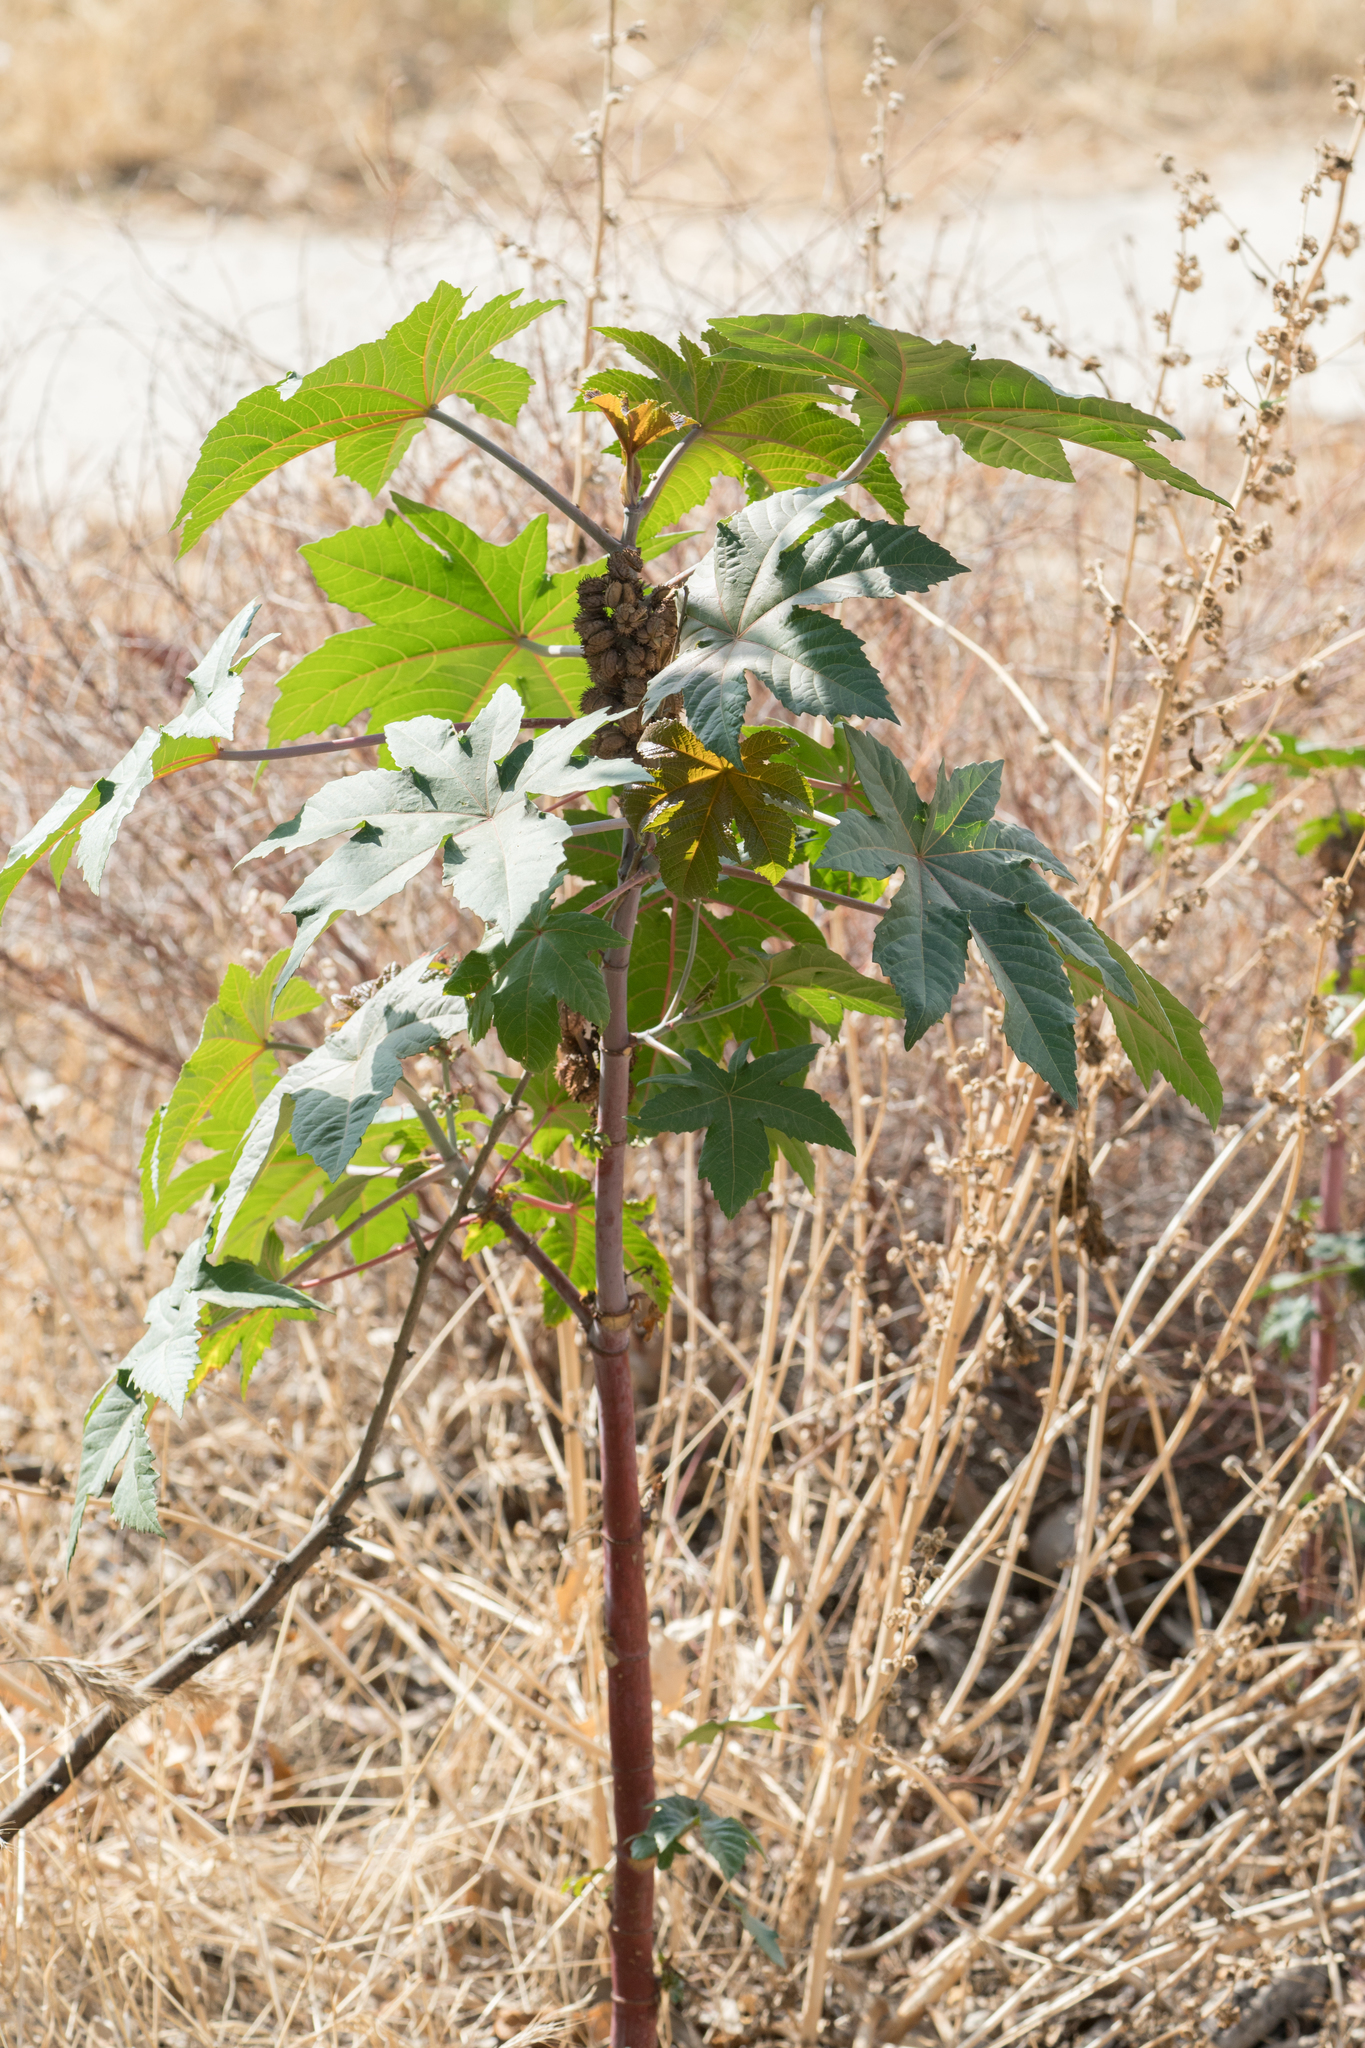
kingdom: Plantae
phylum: Tracheophyta
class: Magnoliopsida
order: Malpighiales
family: Euphorbiaceae
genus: Ricinus
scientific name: Ricinus communis
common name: Castor-oil-plant
